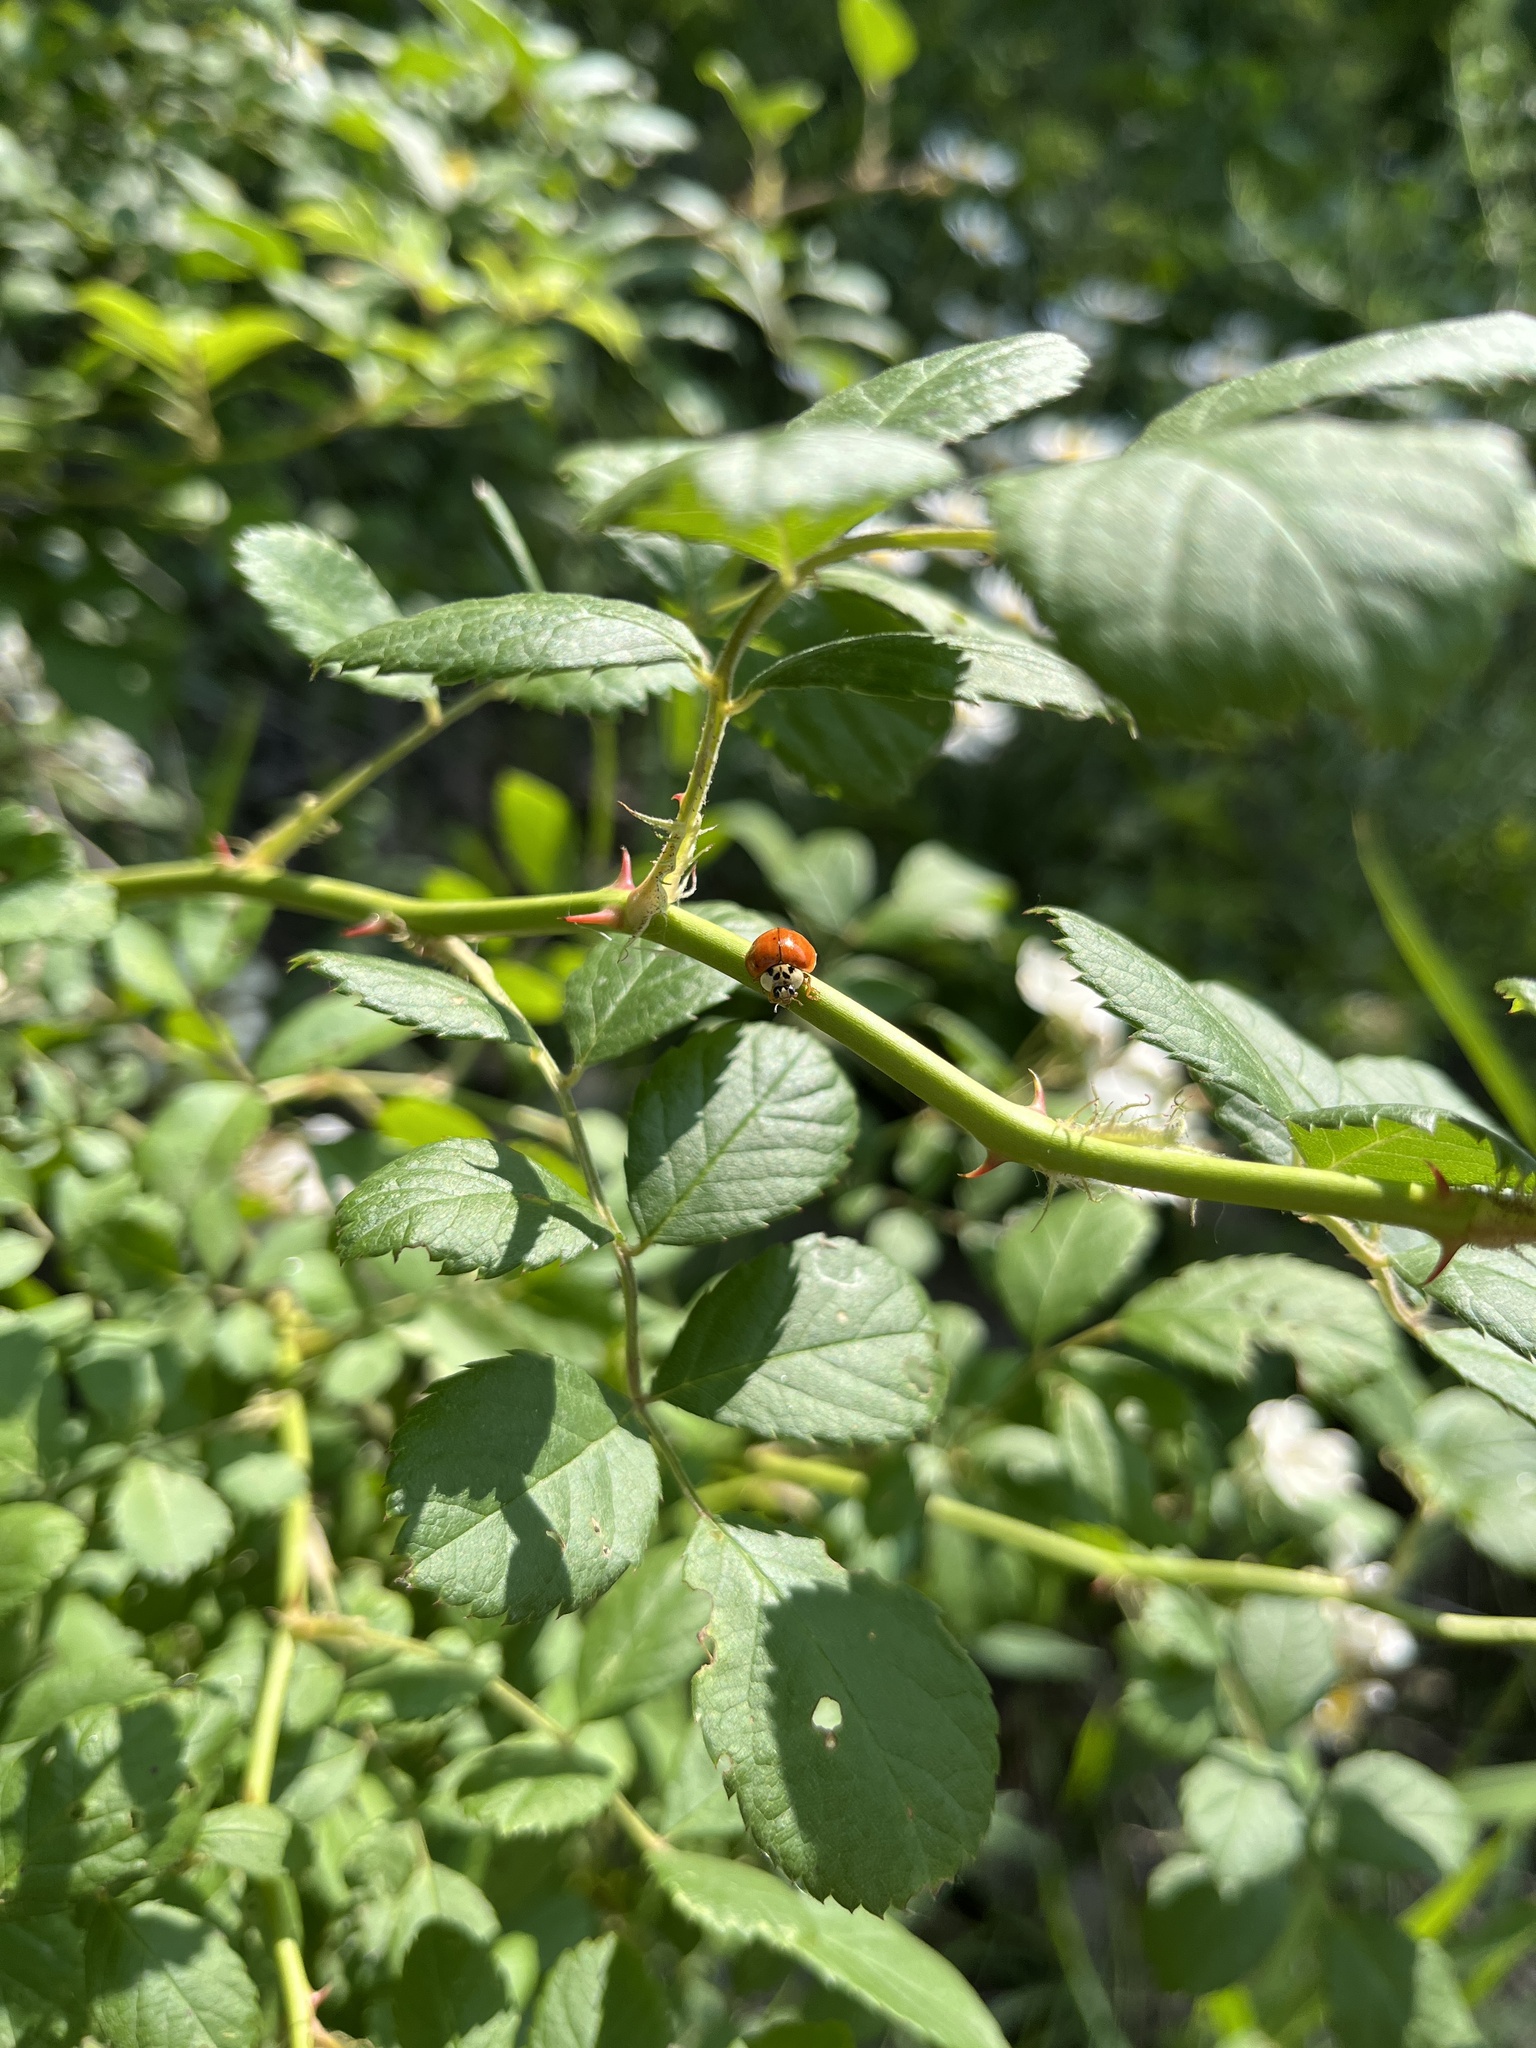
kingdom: Animalia
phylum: Arthropoda
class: Insecta
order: Coleoptera
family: Coccinellidae
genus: Harmonia
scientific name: Harmonia axyridis
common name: Harlequin ladybird
